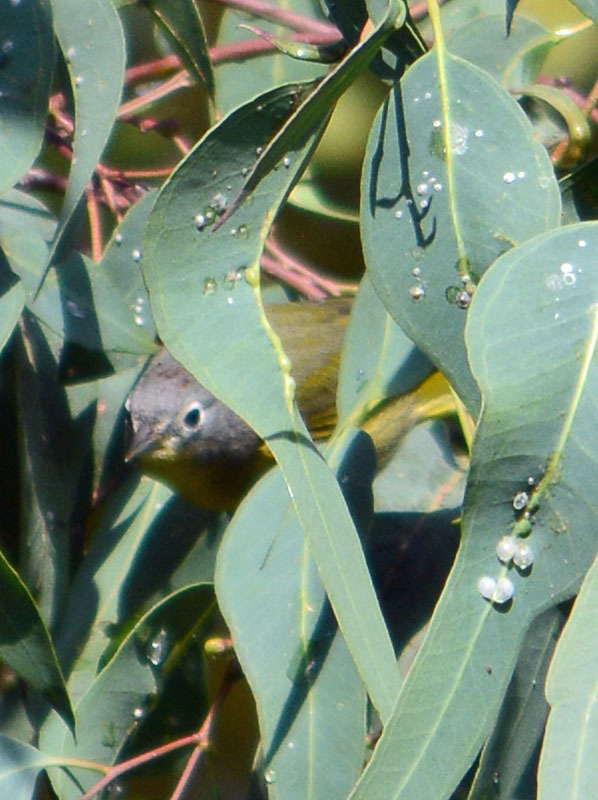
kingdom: Animalia
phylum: Chordata
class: Aves
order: Passeriformes
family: Parulidae
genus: Leiothlypis
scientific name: Leiothlypis ruficapilla
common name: Nashville warbler
